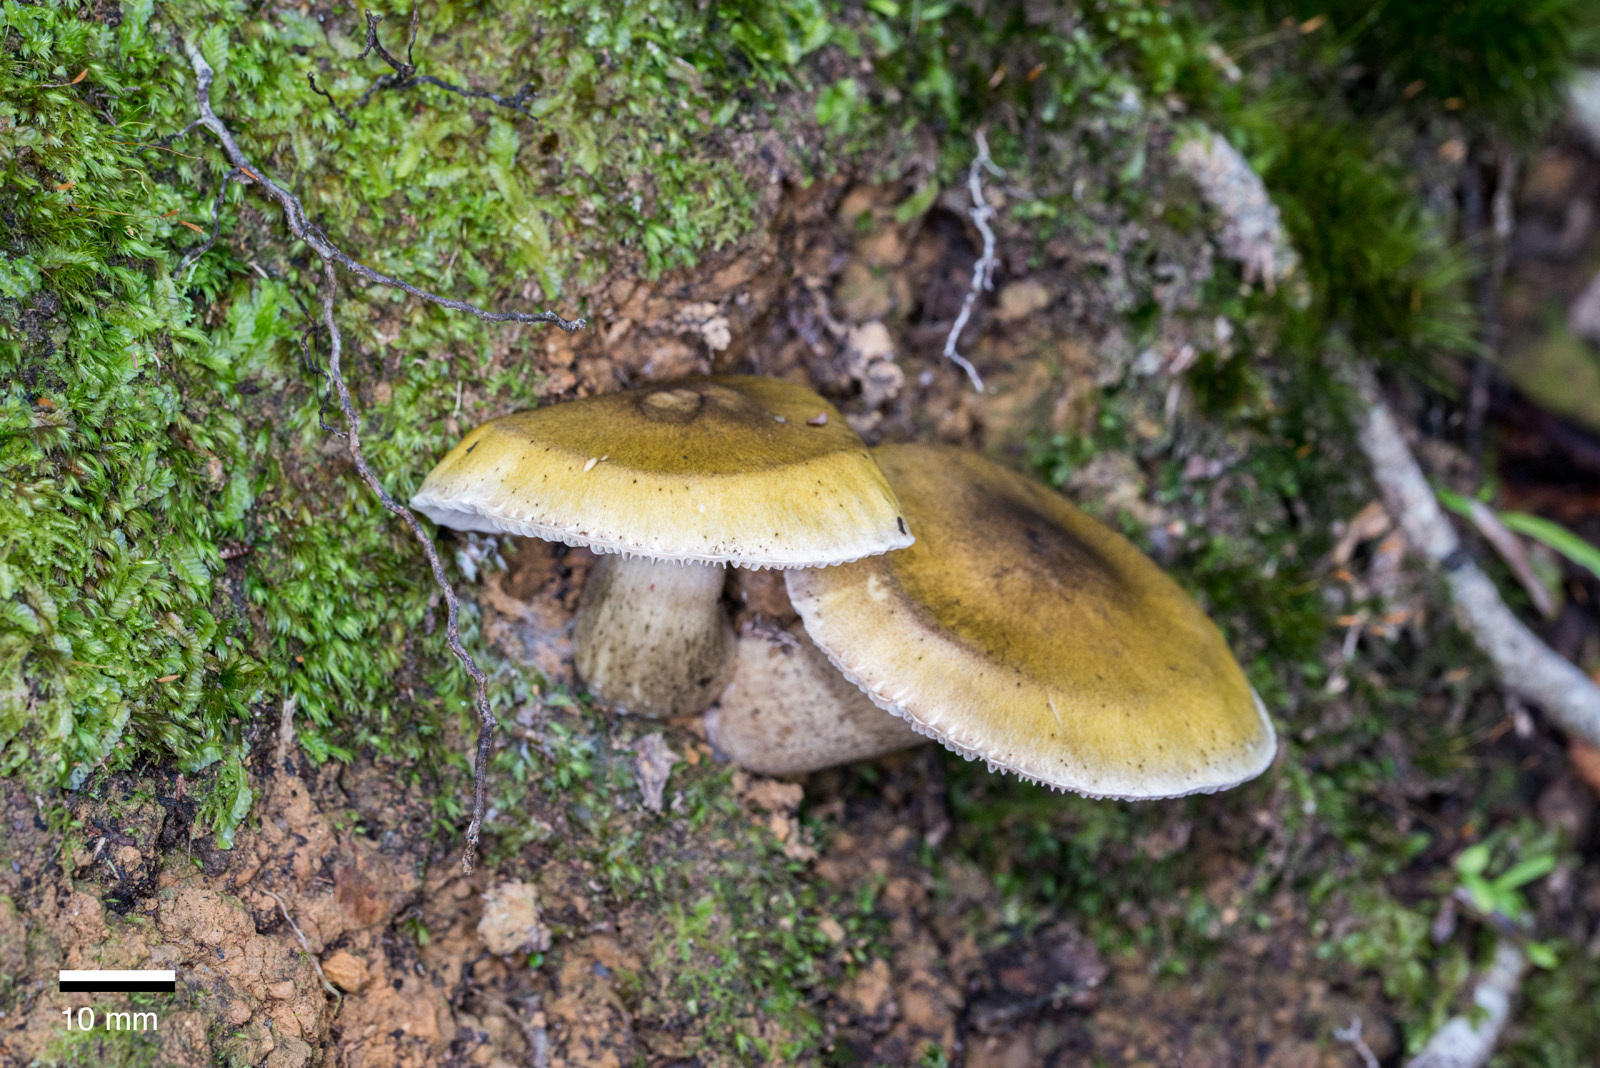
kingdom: Fungi
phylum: Basidiomycota
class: Agaricomycetes
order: Agaricales
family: Tricholomataceae
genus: Tricholoma
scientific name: Tricholoma viridiolivaceum
